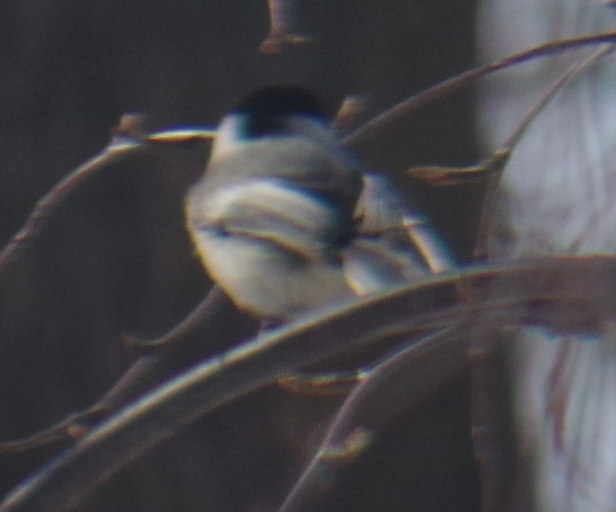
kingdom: Animalia
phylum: Chordata
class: Aves
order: Passeriformes
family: Paridae
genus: Poecile
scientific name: Poecile atricapillus
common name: Black-capped chickadee
